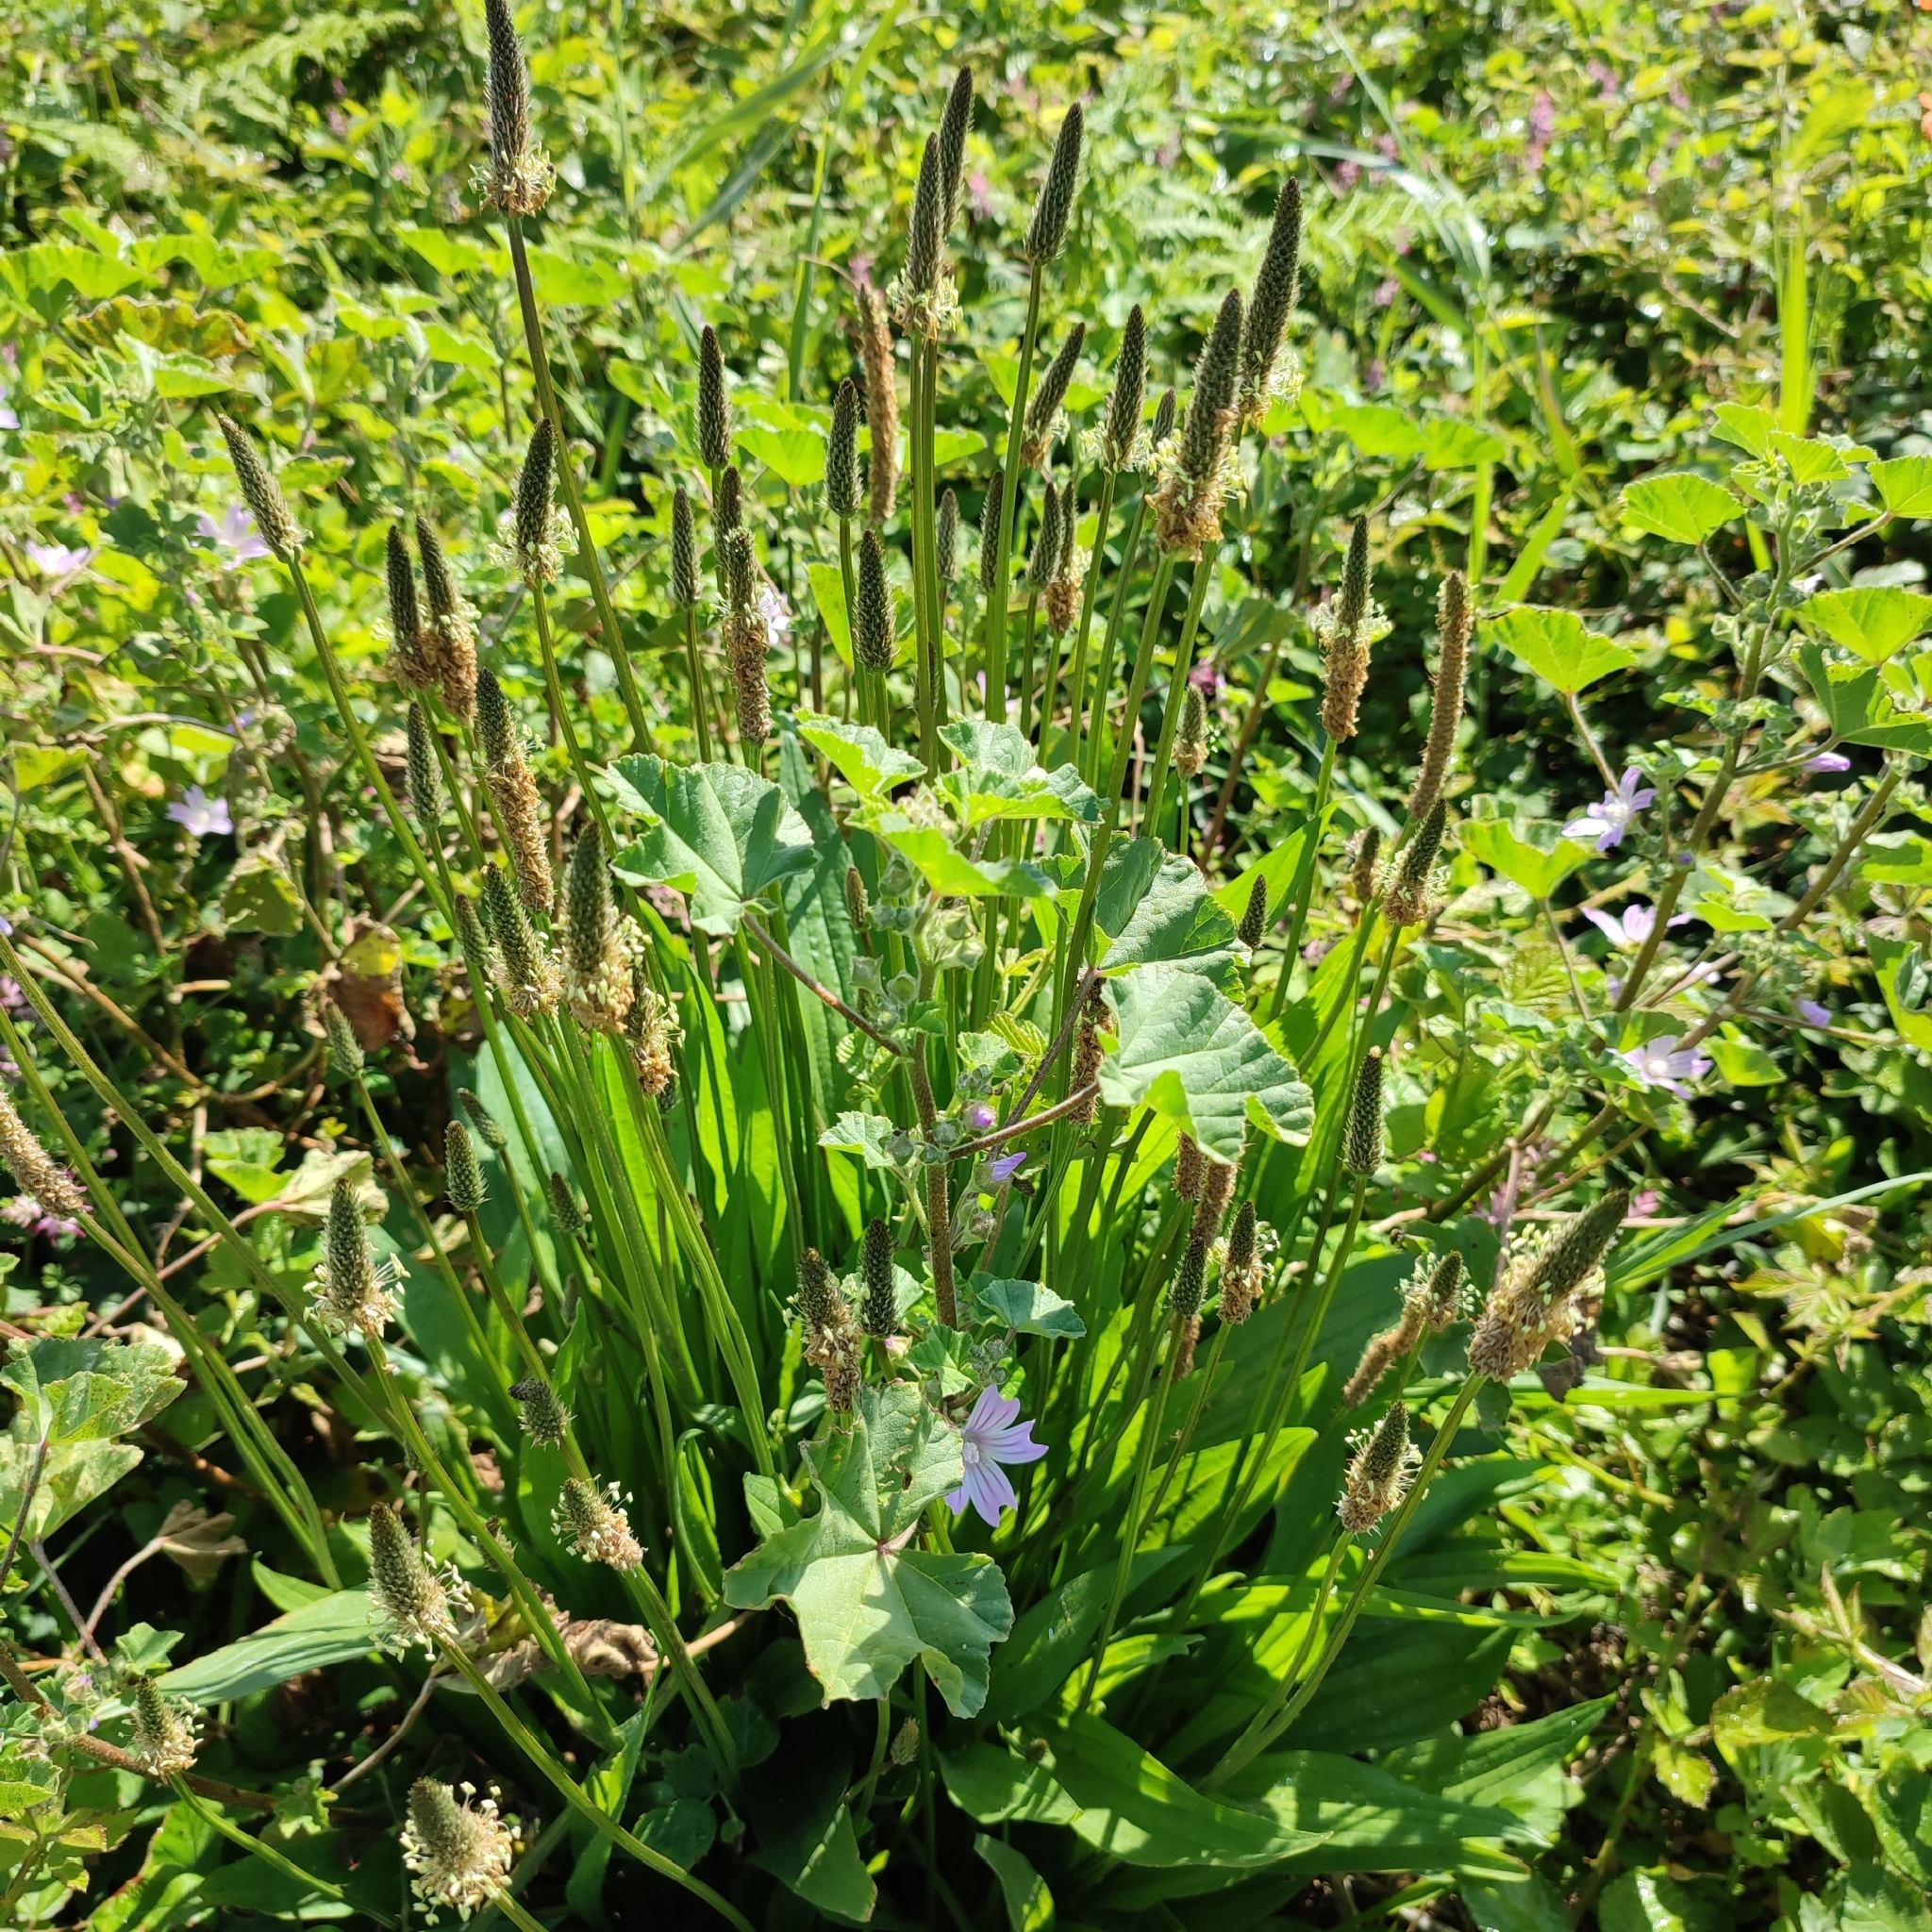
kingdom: Plantae
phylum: Tracheophyta
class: Magnoliopsida
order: Lamiales
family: Plantaginaceae
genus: Plantago
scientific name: Plantago lanceolata
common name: Ribwort plantain
